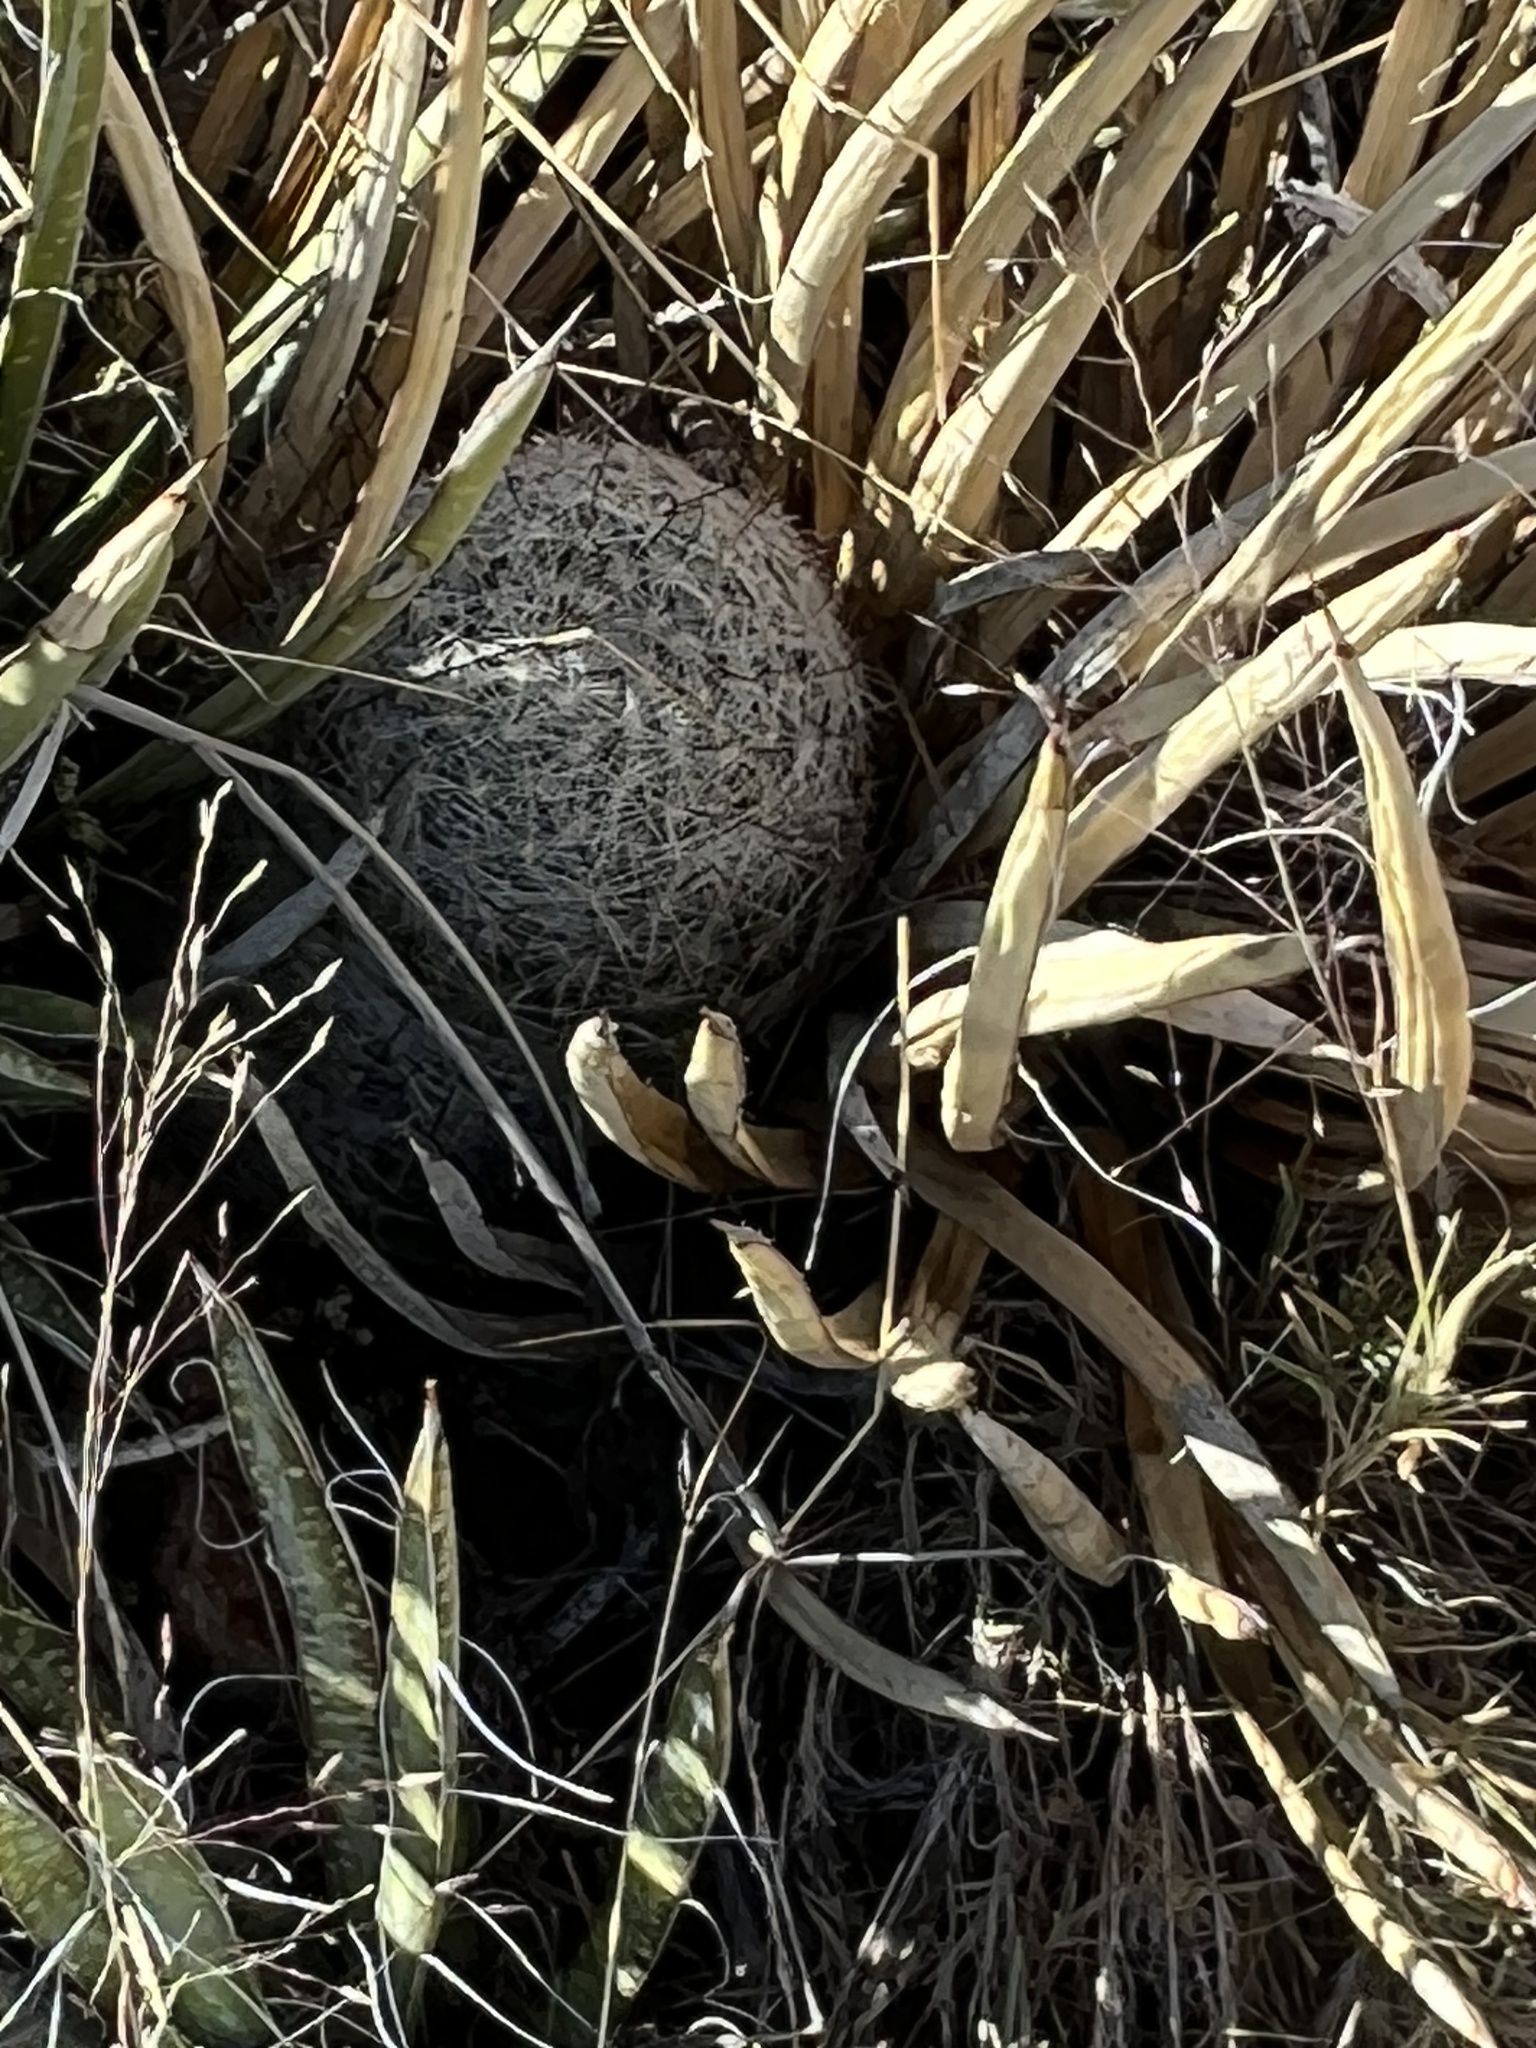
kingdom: Plantae
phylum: Tracheophyta
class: Magnoliopsida
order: Caryophyllales
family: Cactaceae
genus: Cochemiea
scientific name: Cochemiea grahamii
